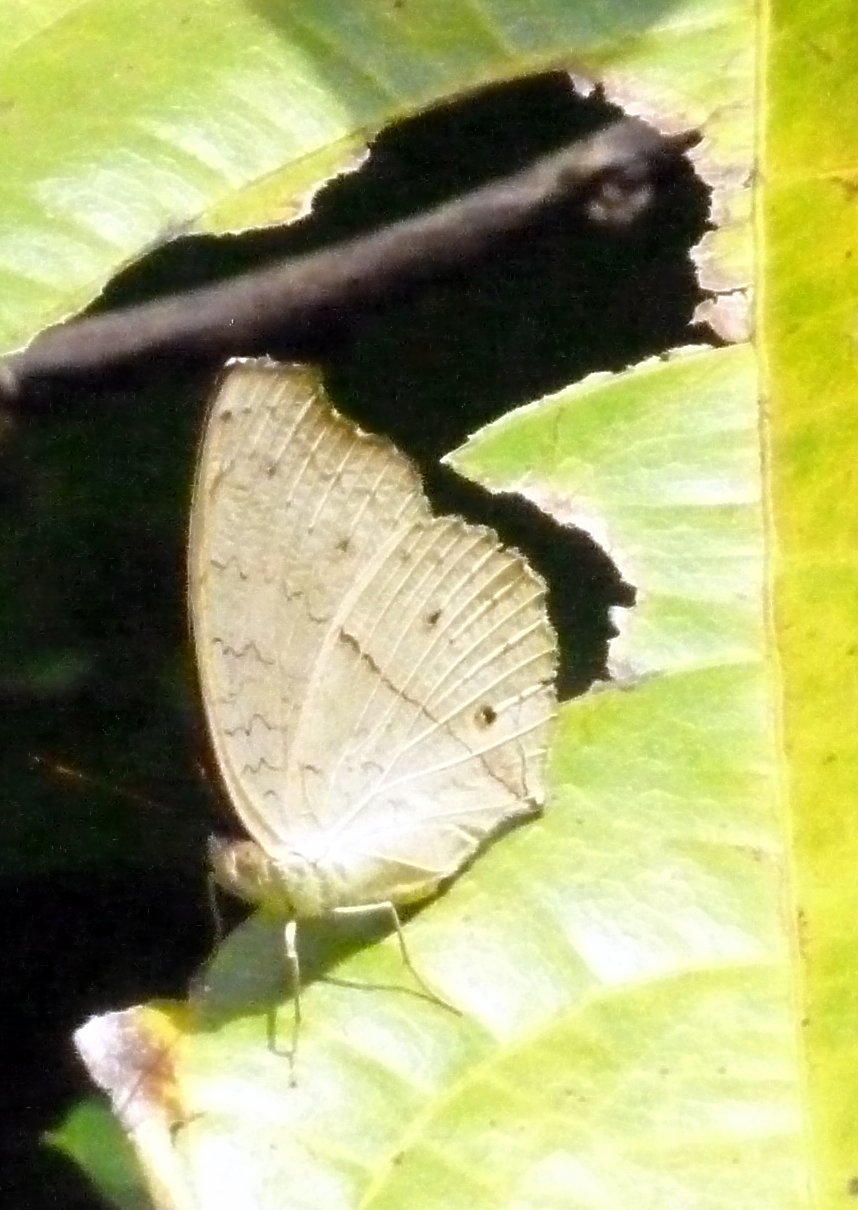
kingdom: Animalia
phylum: Arthropoda
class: Insecta
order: Lepidoptera
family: Nymphalidae
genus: Junonia
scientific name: Junonia atlites
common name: Grey pansy
